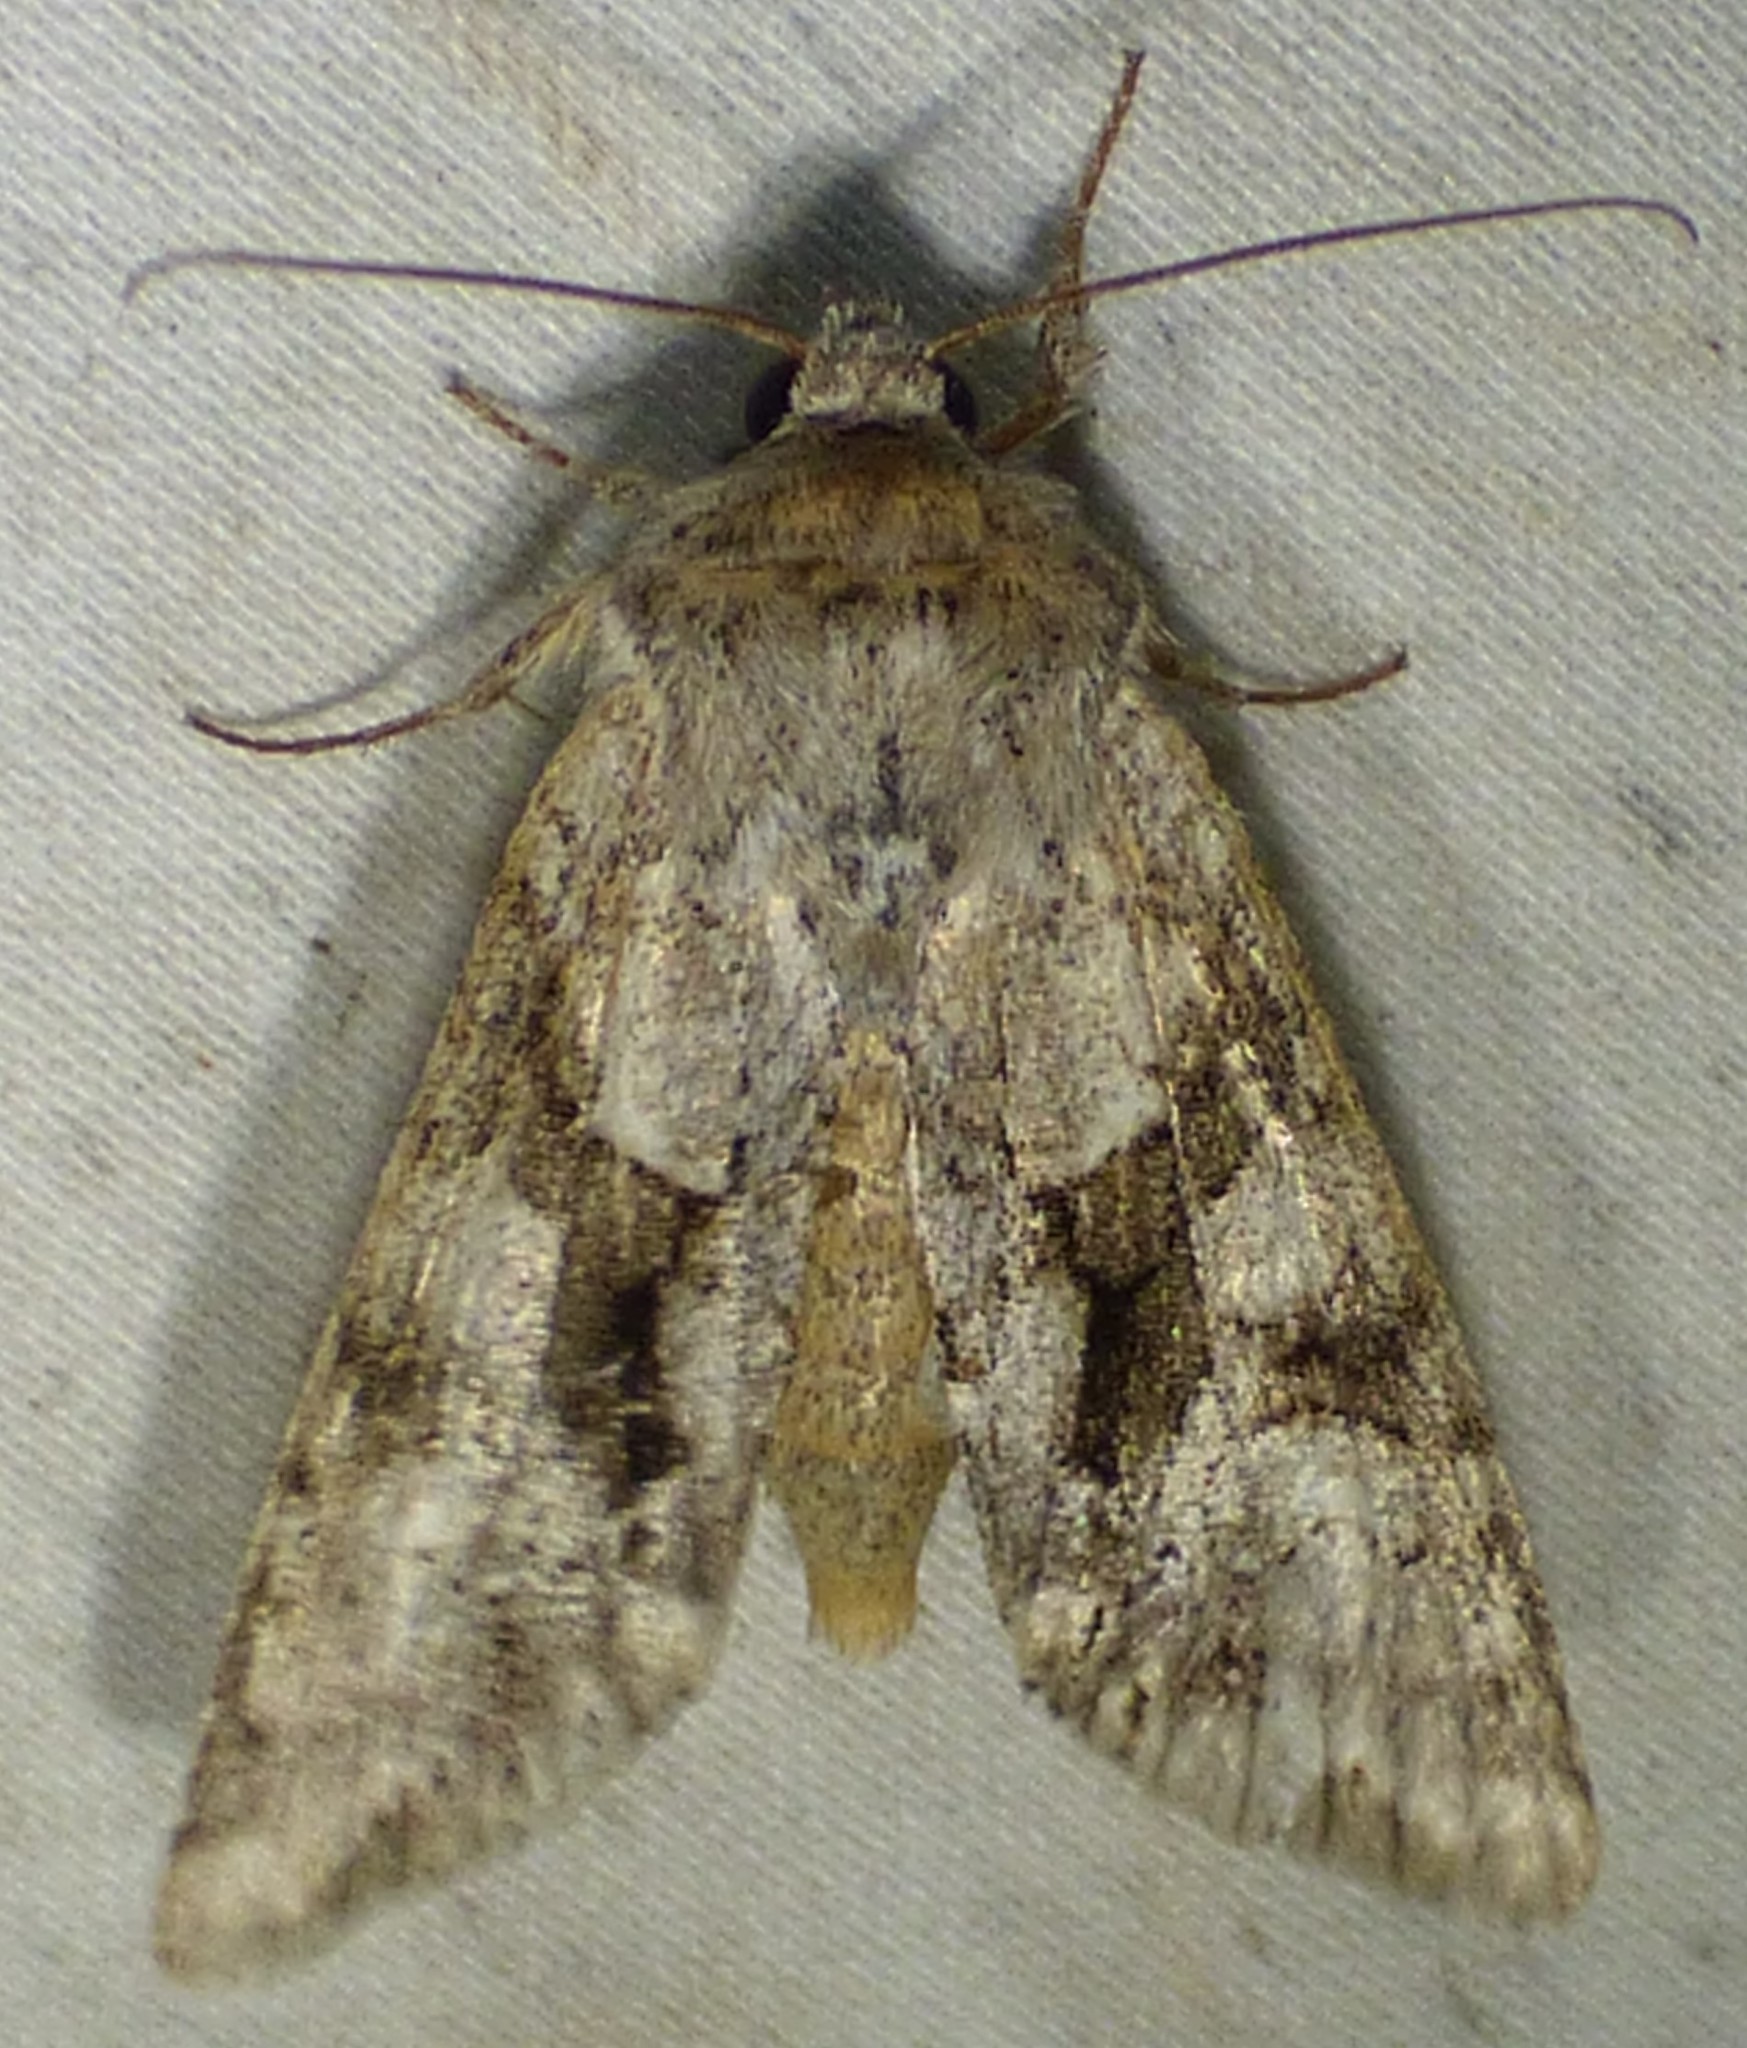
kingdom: Animalia
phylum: Arthropoda
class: Insecta
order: Lepidoptera
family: Noctuidae
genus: Achatia
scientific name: Achatia distincta
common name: Distinct quaker
